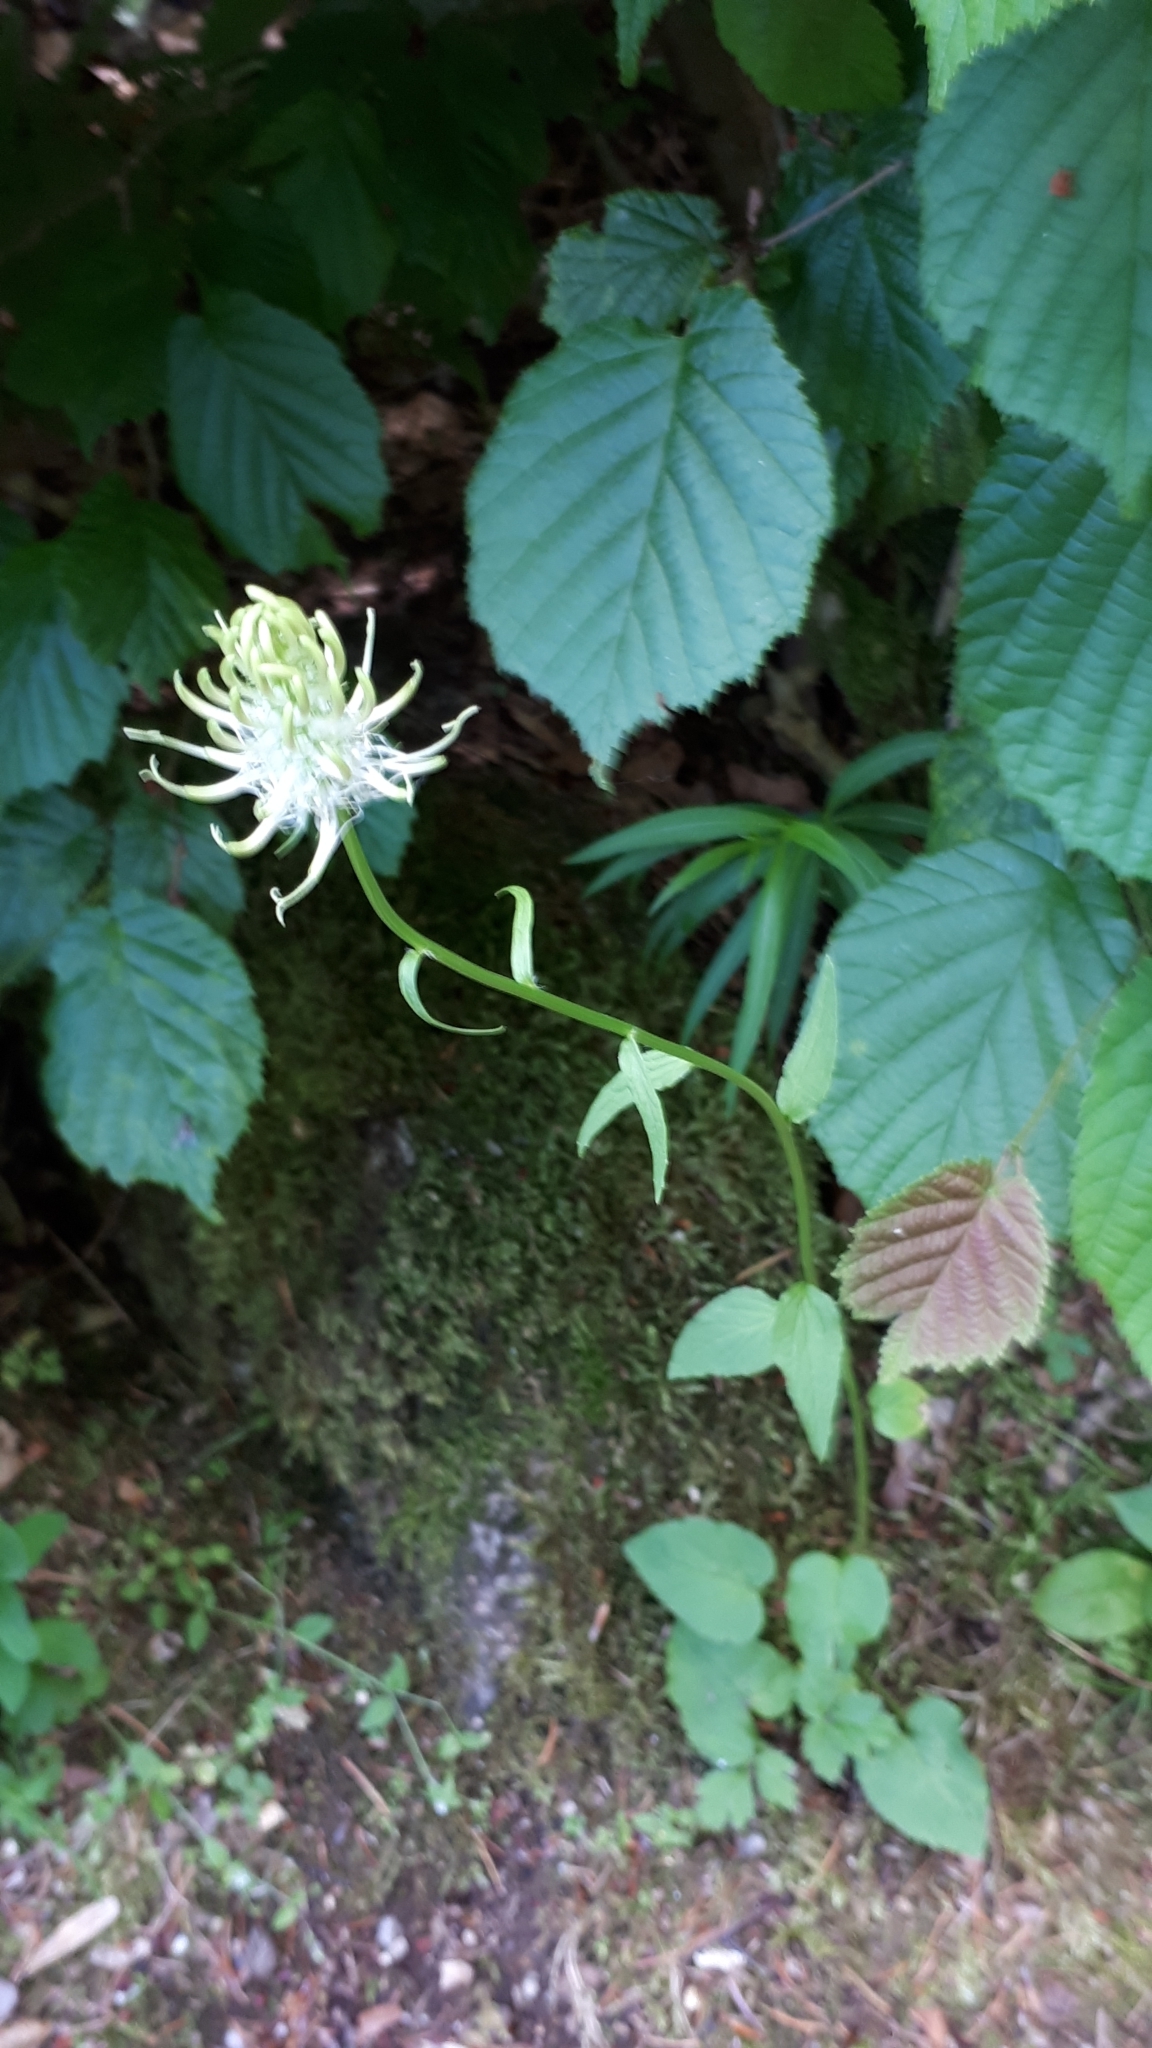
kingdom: Plantae
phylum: Tracheophyta
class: Magnoliopsida
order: Asterales
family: Campanulaceae
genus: Phyteuma
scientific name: Phyteuma spicatum
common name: Spiked rampion
